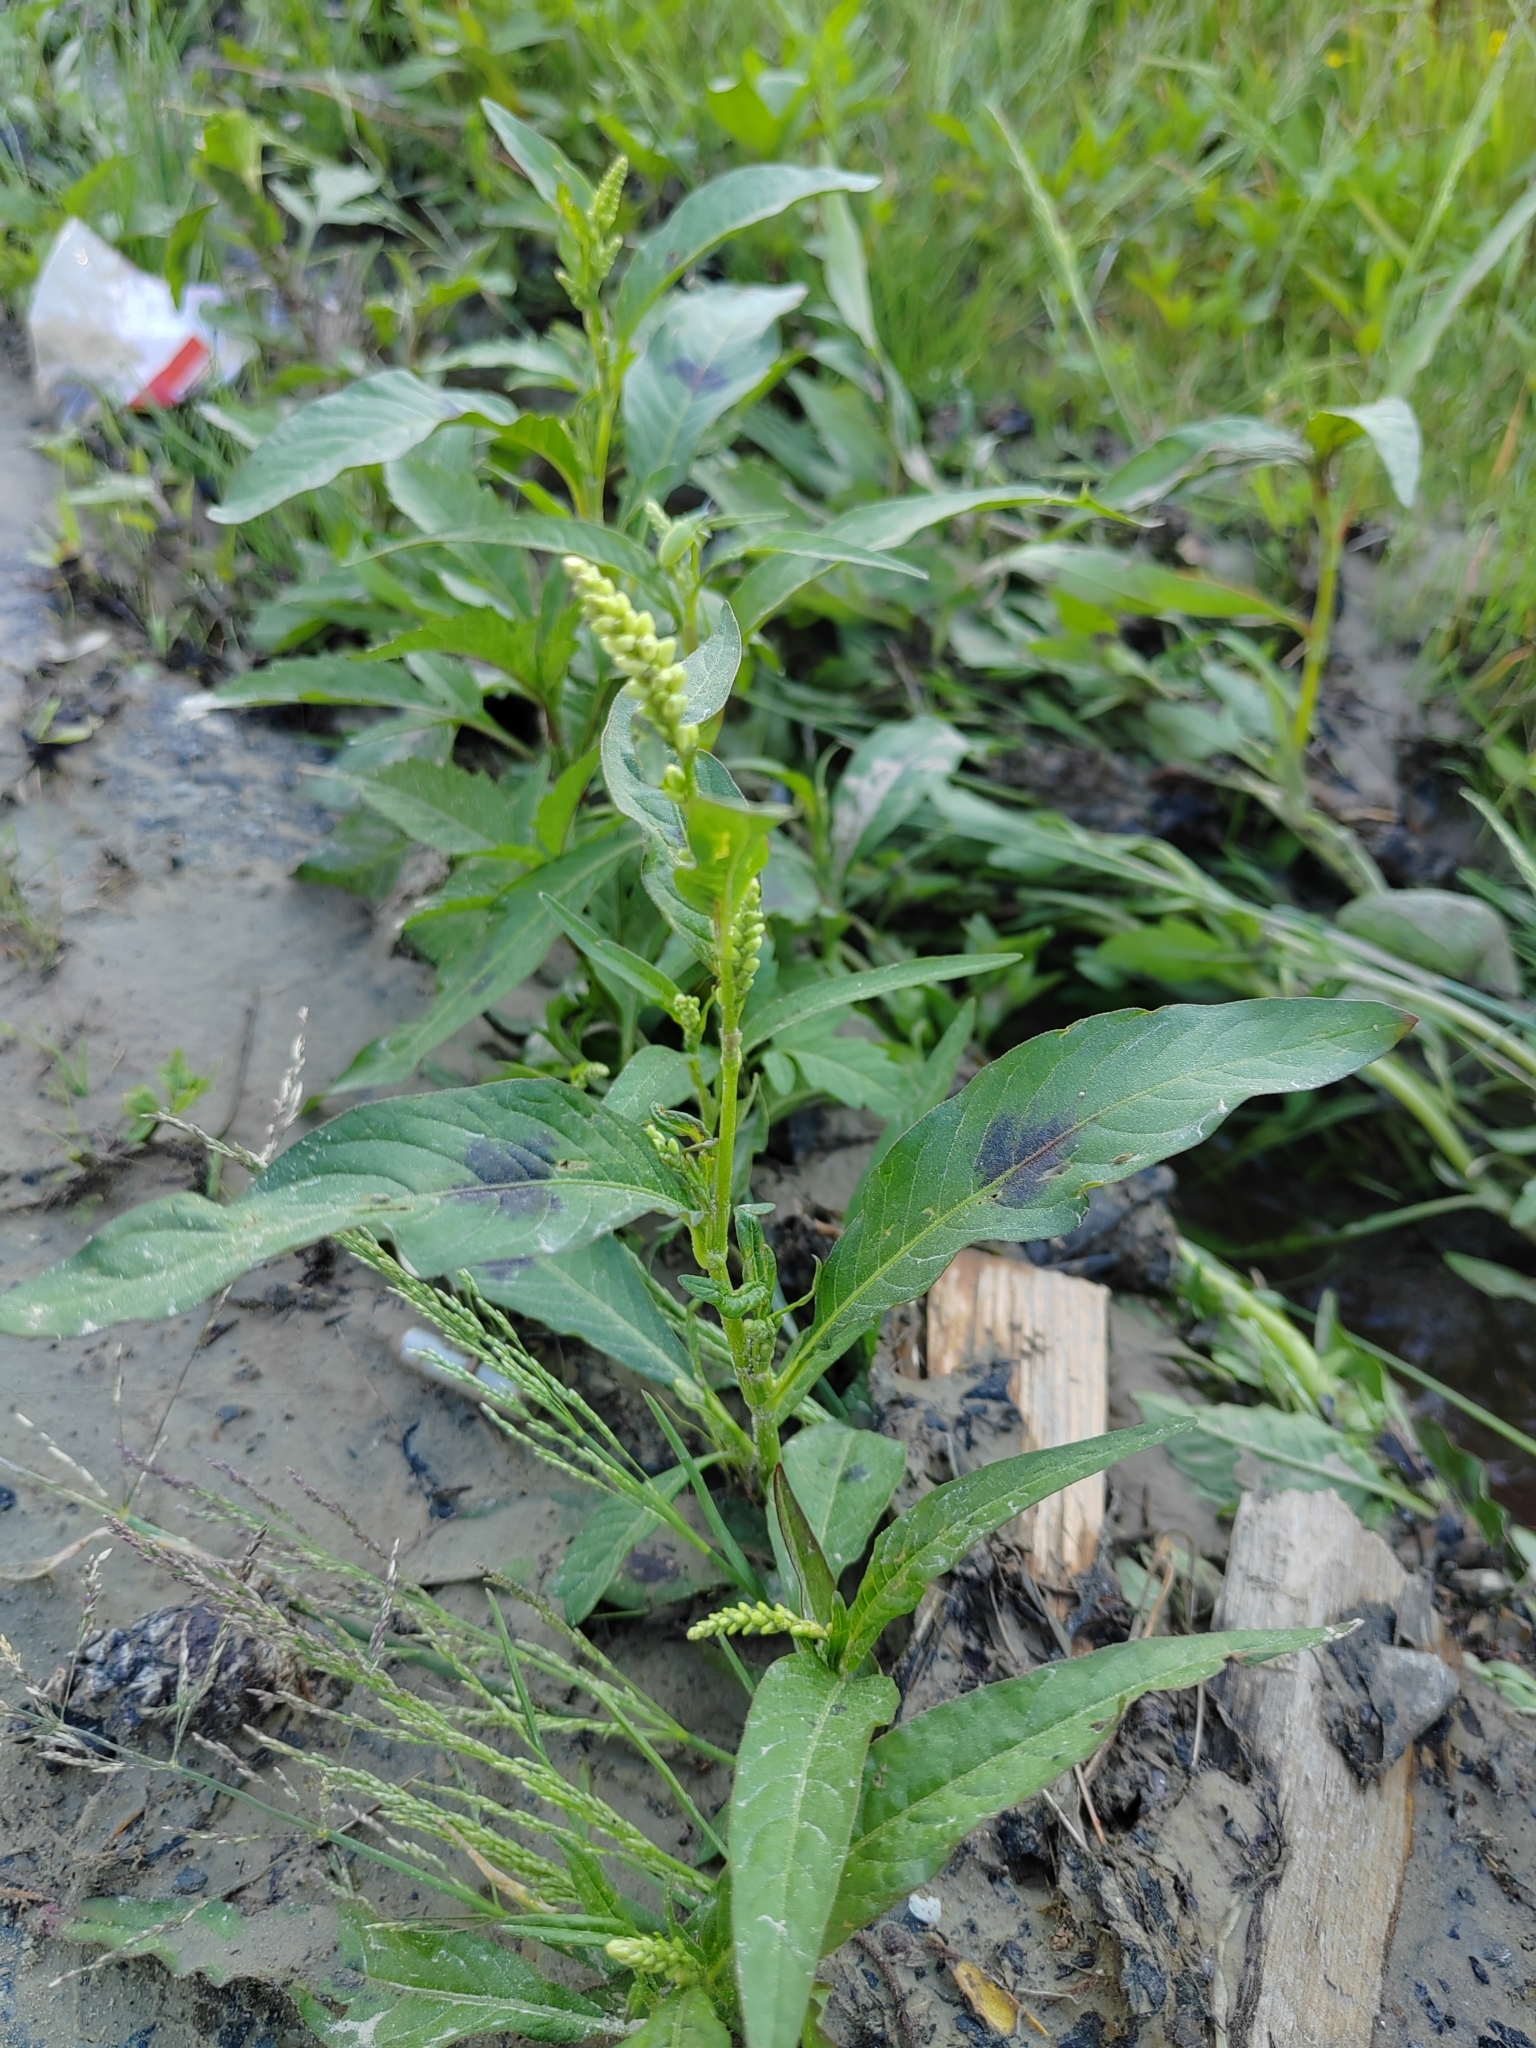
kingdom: Plantae
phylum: Tracheophyta
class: Magnoliopsida
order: Caryophyllales
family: Polygonaceae
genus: Persicaria
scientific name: Persicaria lapathifolia
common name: Curlytop knotweed
